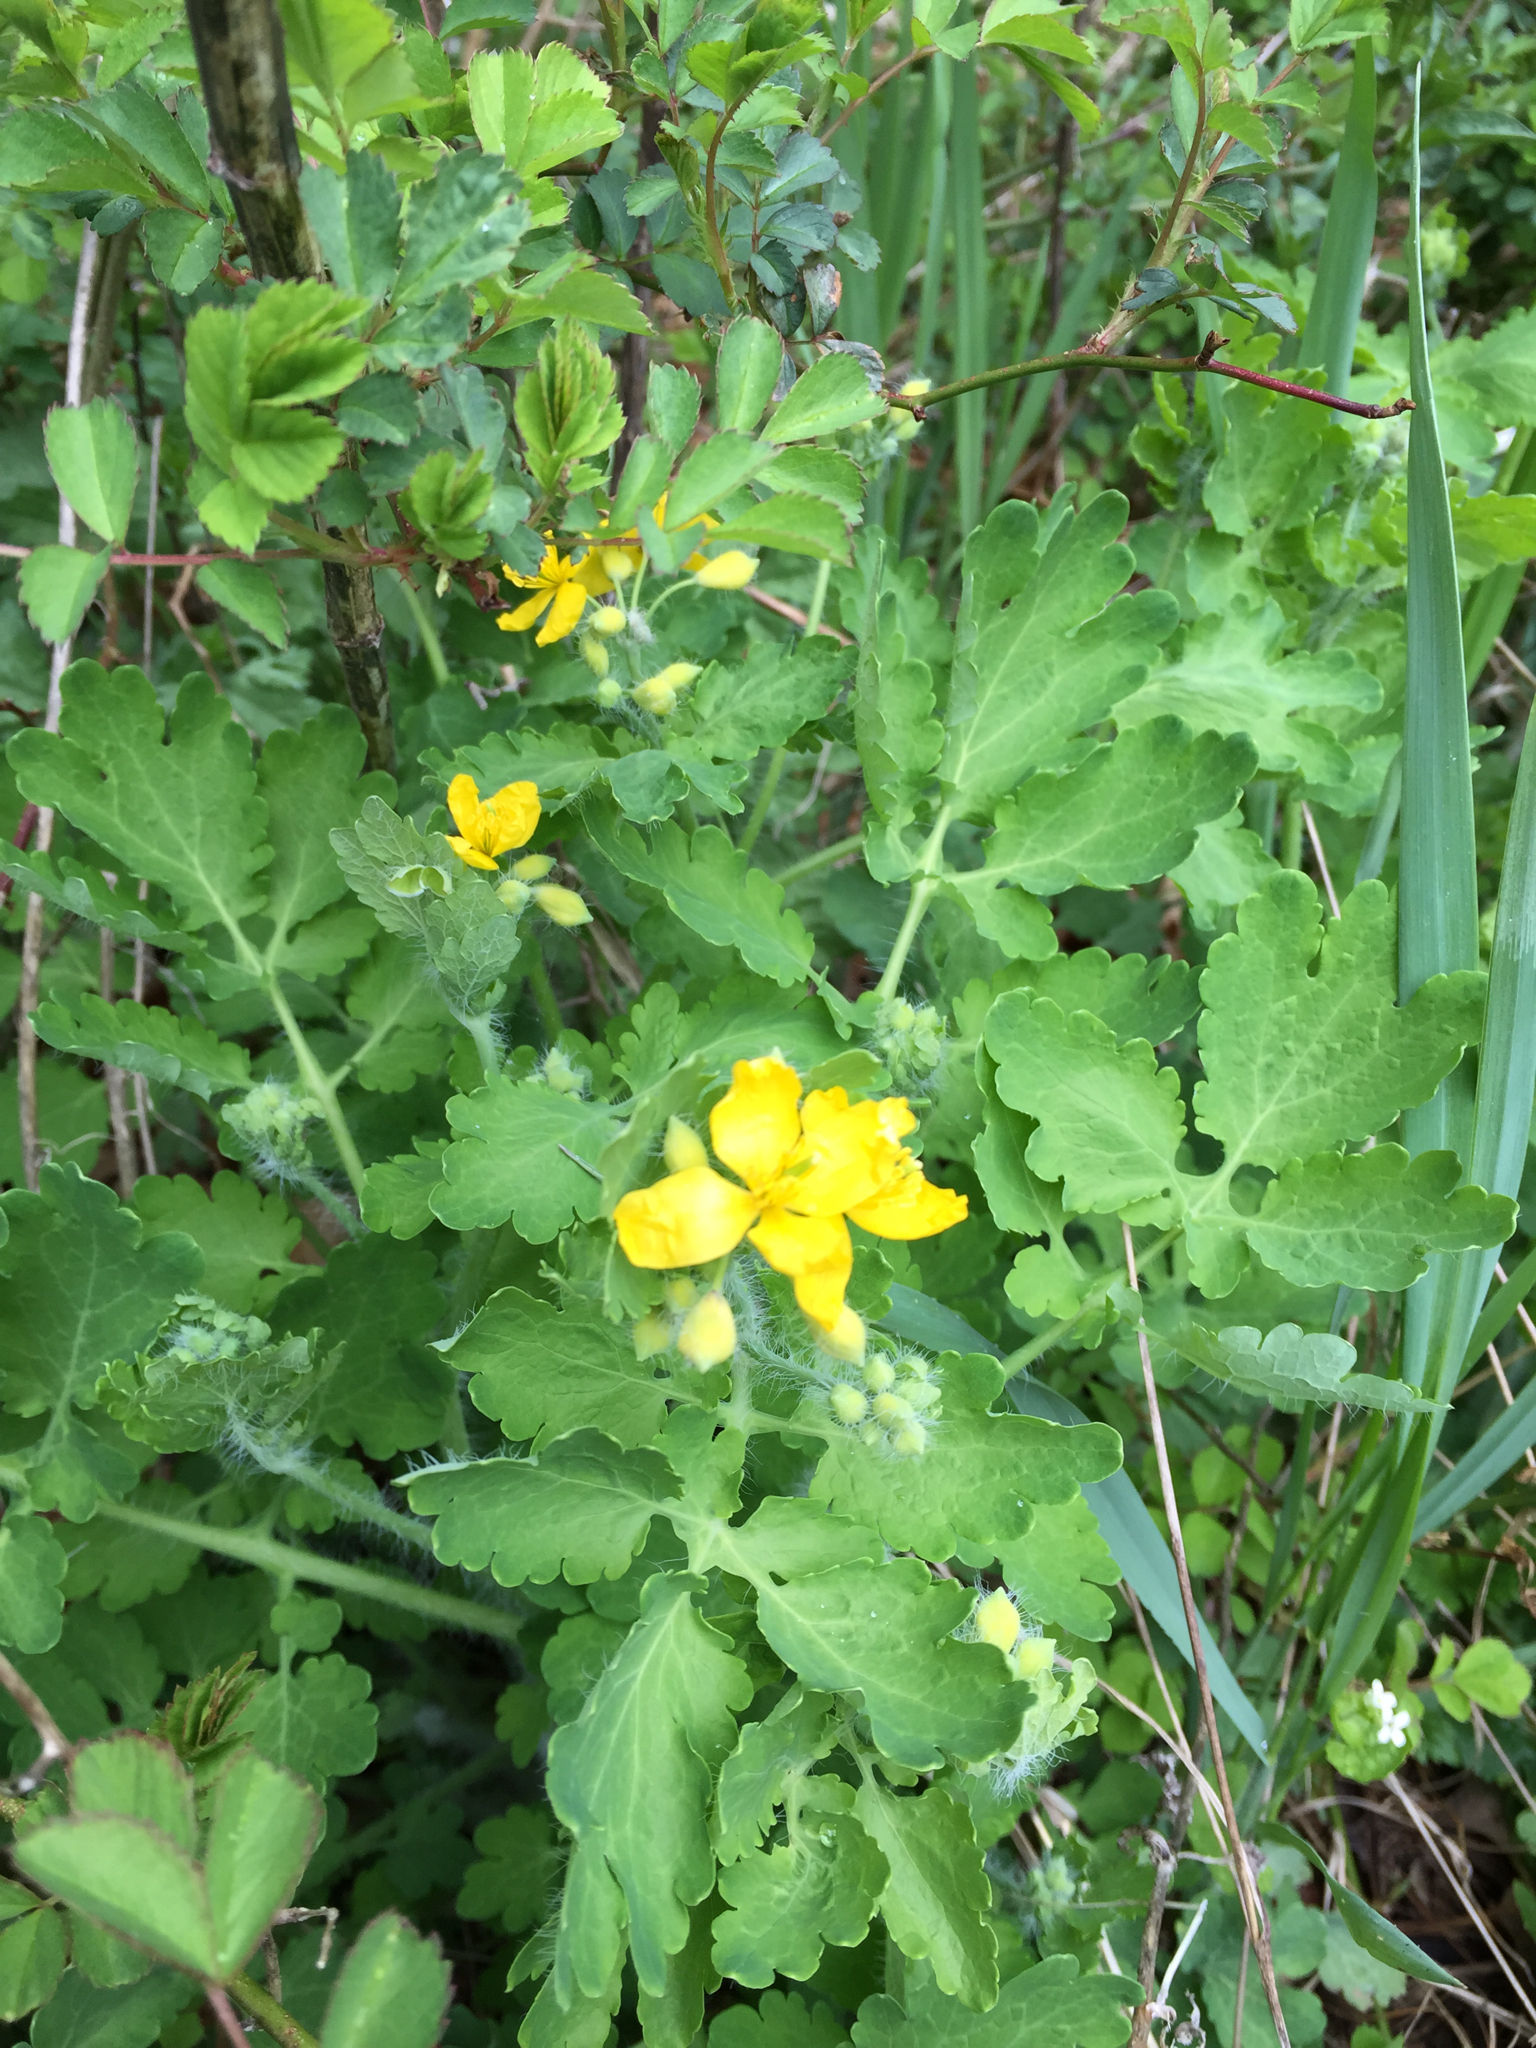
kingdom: Plantae
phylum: Tracheophyta
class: Magnoliopsida
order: Ranunculales
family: Papaveraceae
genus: Chelidonium
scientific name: Chelidonium majus
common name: Greater celandine
